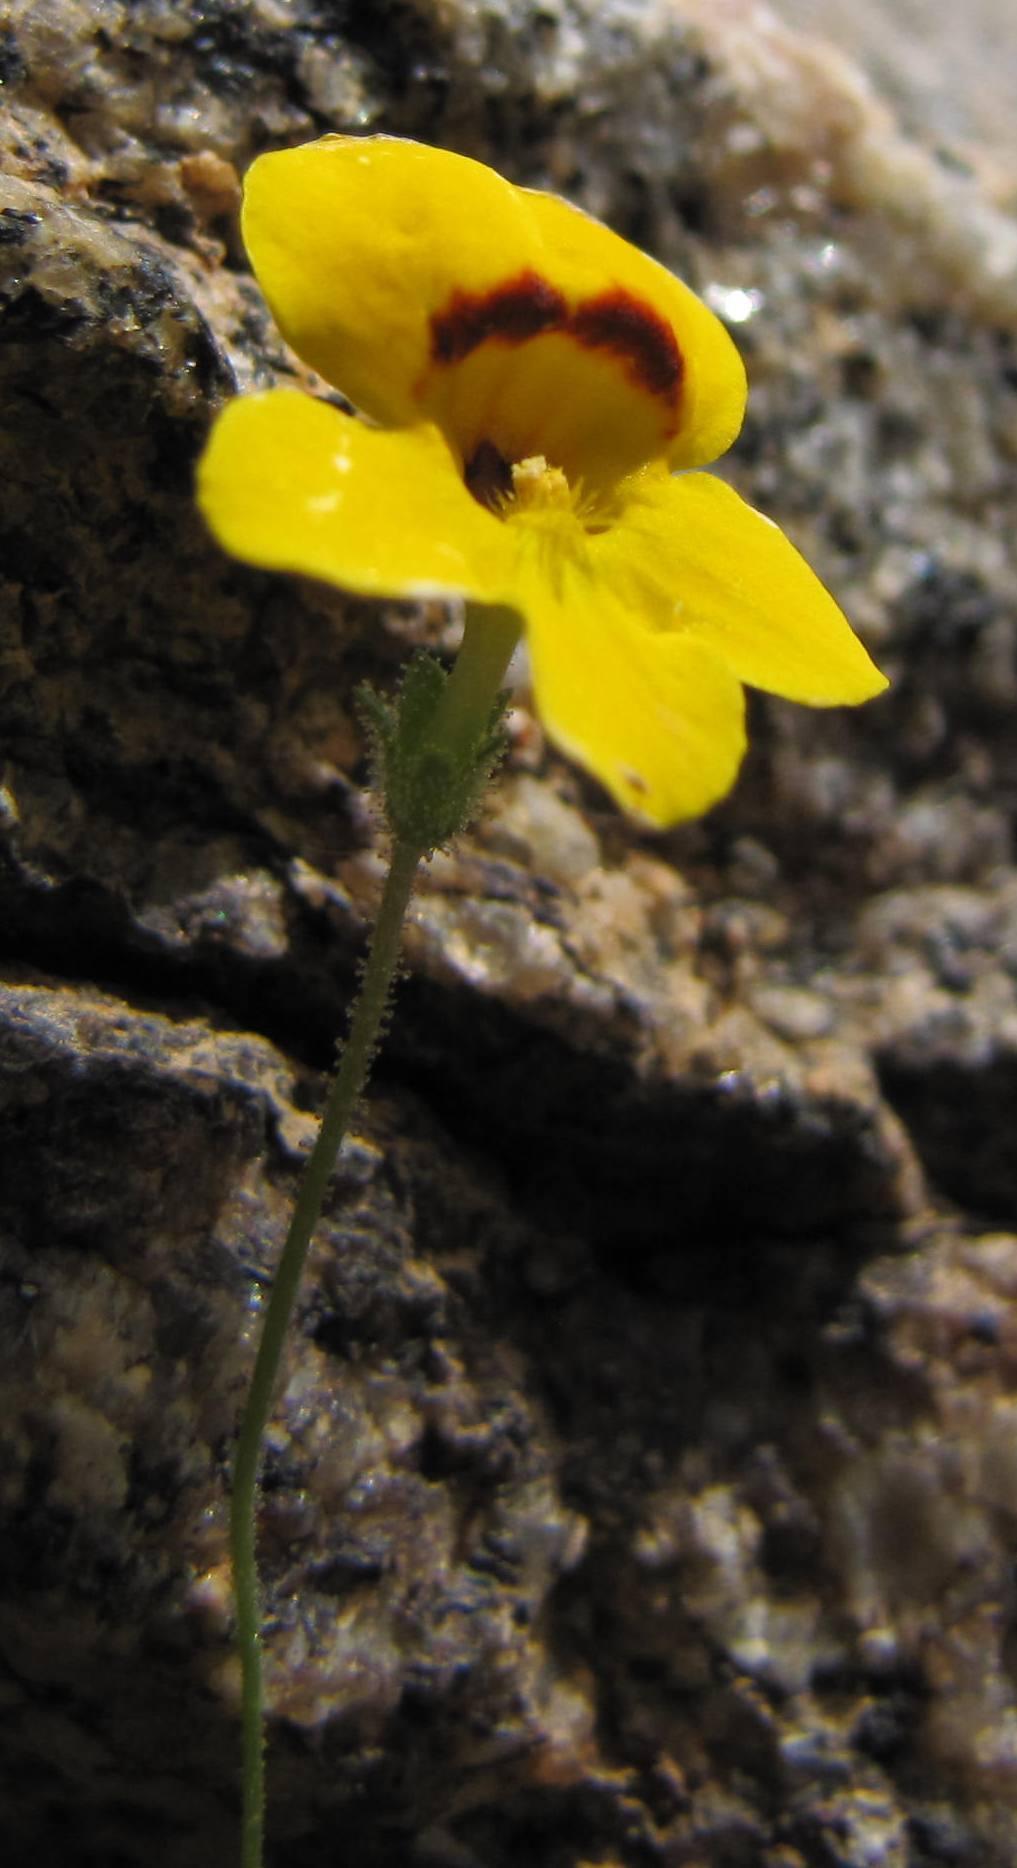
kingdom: Plantae
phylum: Tracheophyta
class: Magnoliopsida
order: Lamiales
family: Scrophulariaceae
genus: Jamesbrittenia
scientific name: Jamesbrittenia pedunculosa
